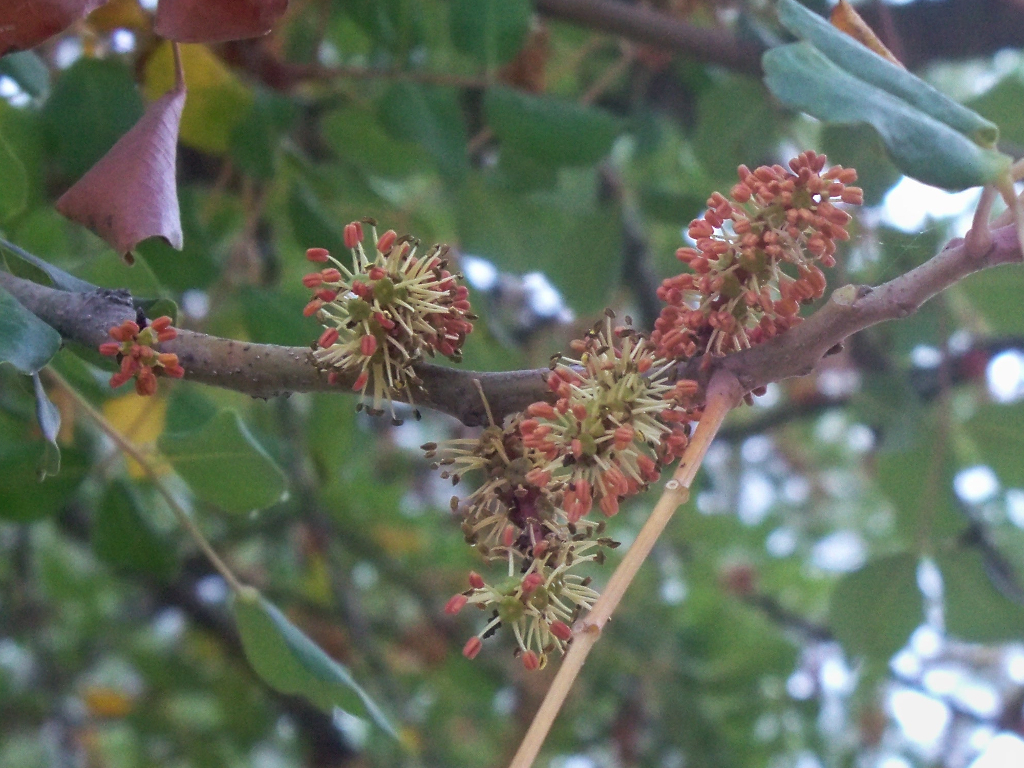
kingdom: Plantae
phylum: Tracheophyta
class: Magnoliopsida
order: Fabales
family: Fabaceae
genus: Ceratonia
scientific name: Ceratonia siliqua
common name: Carob
